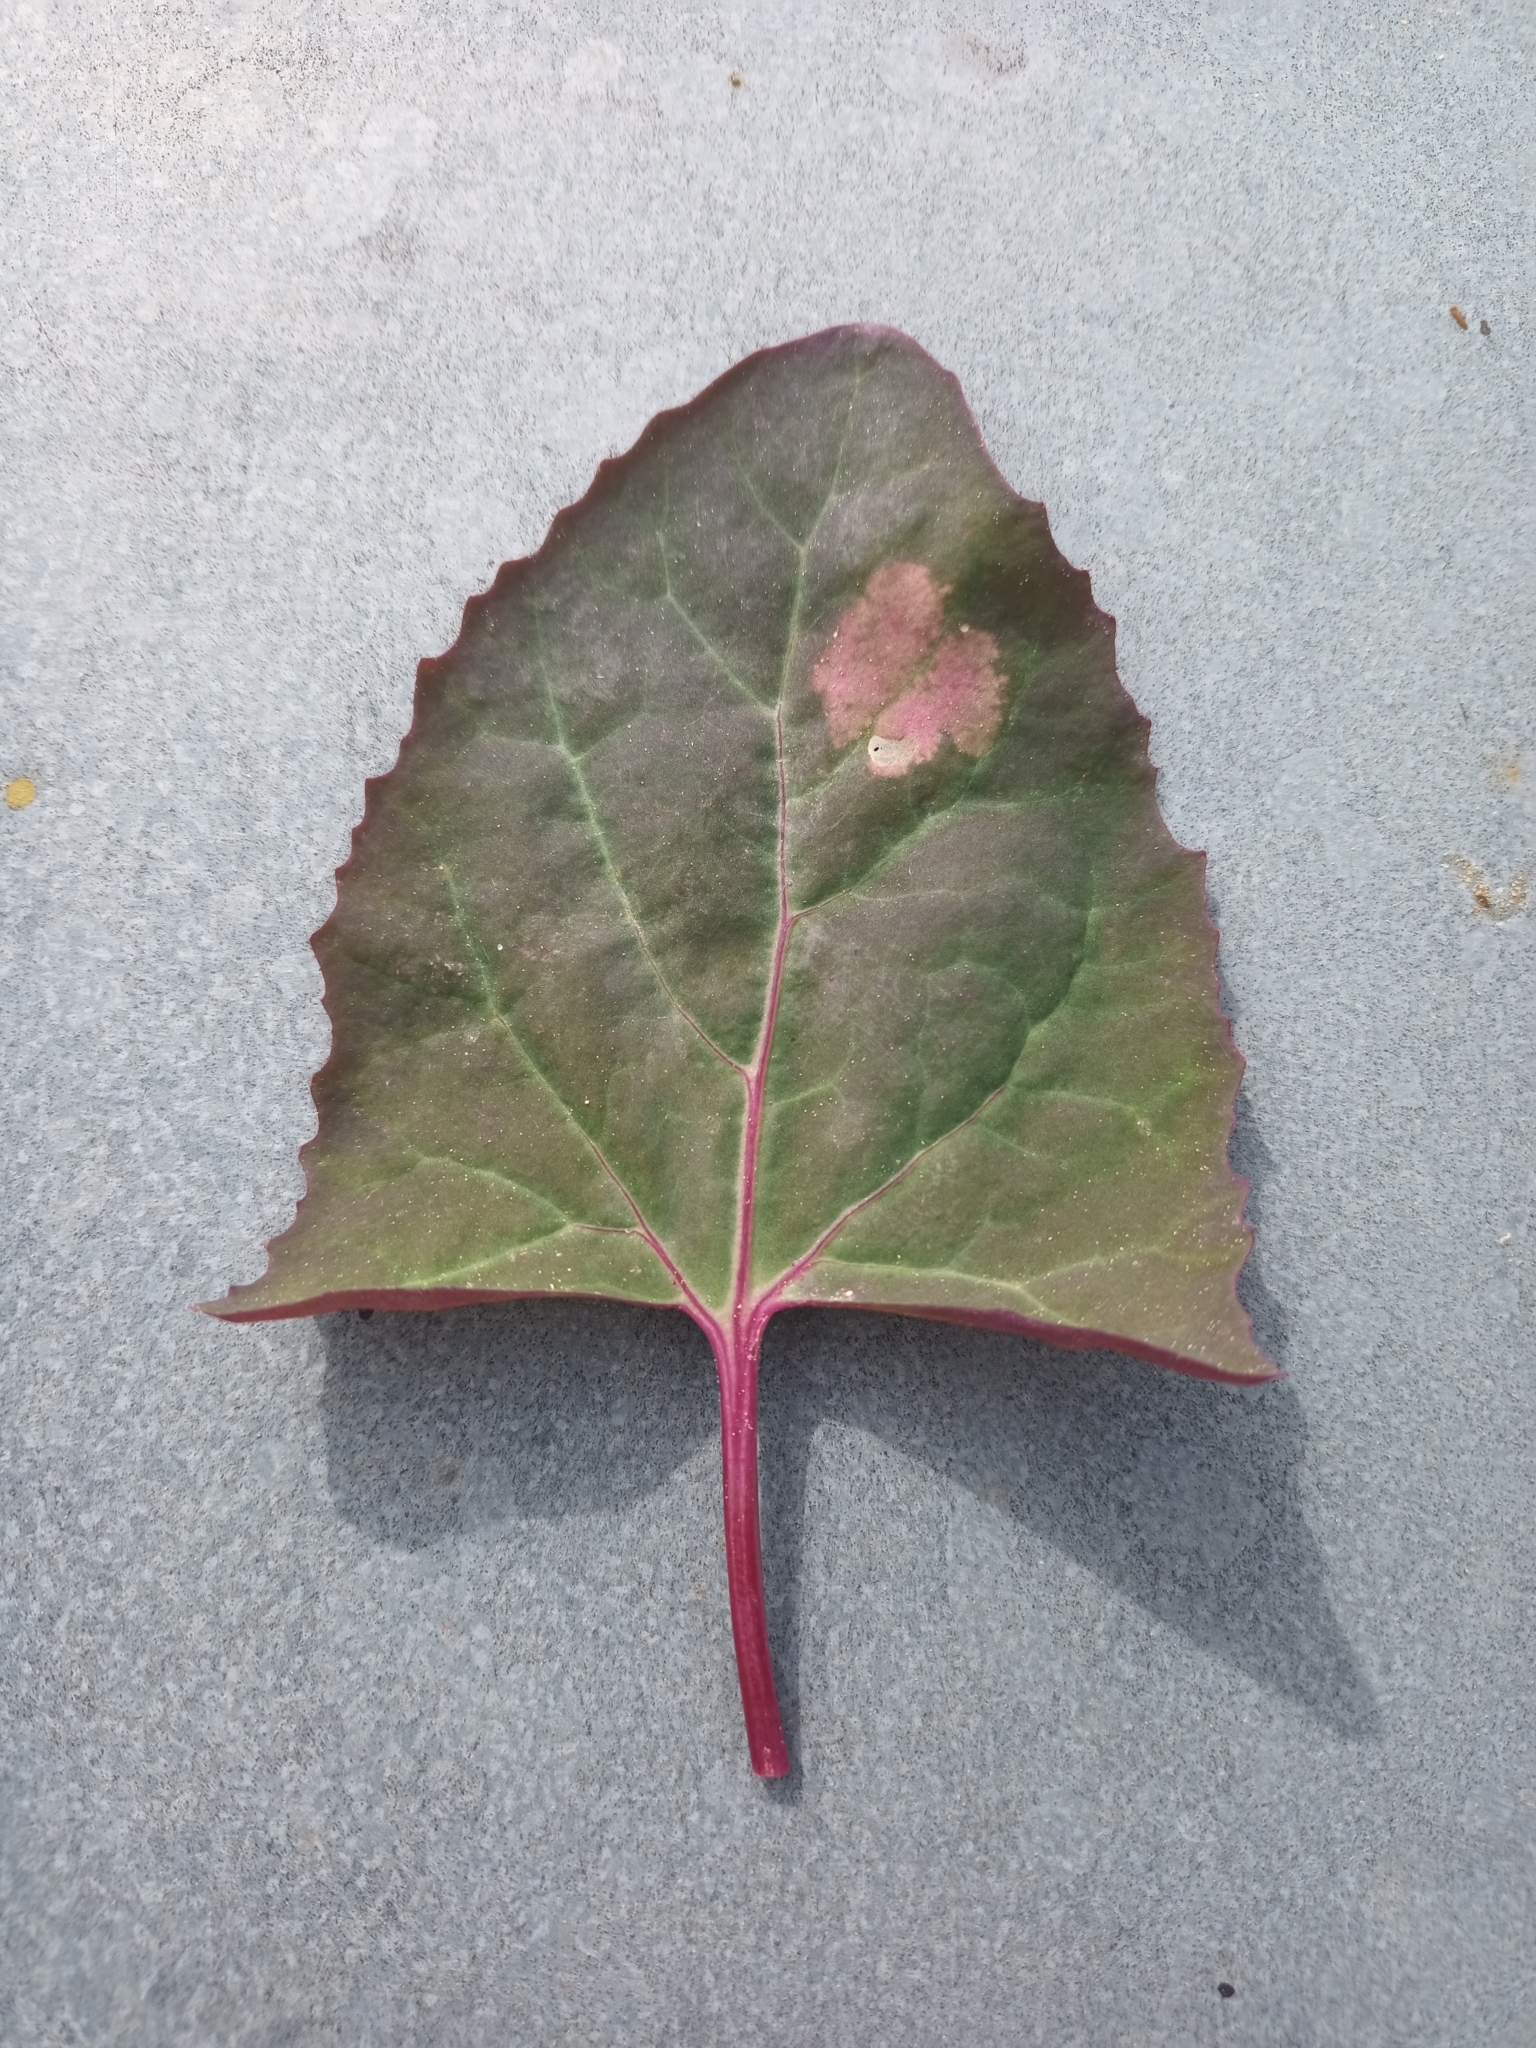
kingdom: Plantae
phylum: Tracheophyta
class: Magnoliopsida
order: Caryophyllales
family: Amaranthaceae
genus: Atriplex
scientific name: Atriplex hortensis
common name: Garden orache
